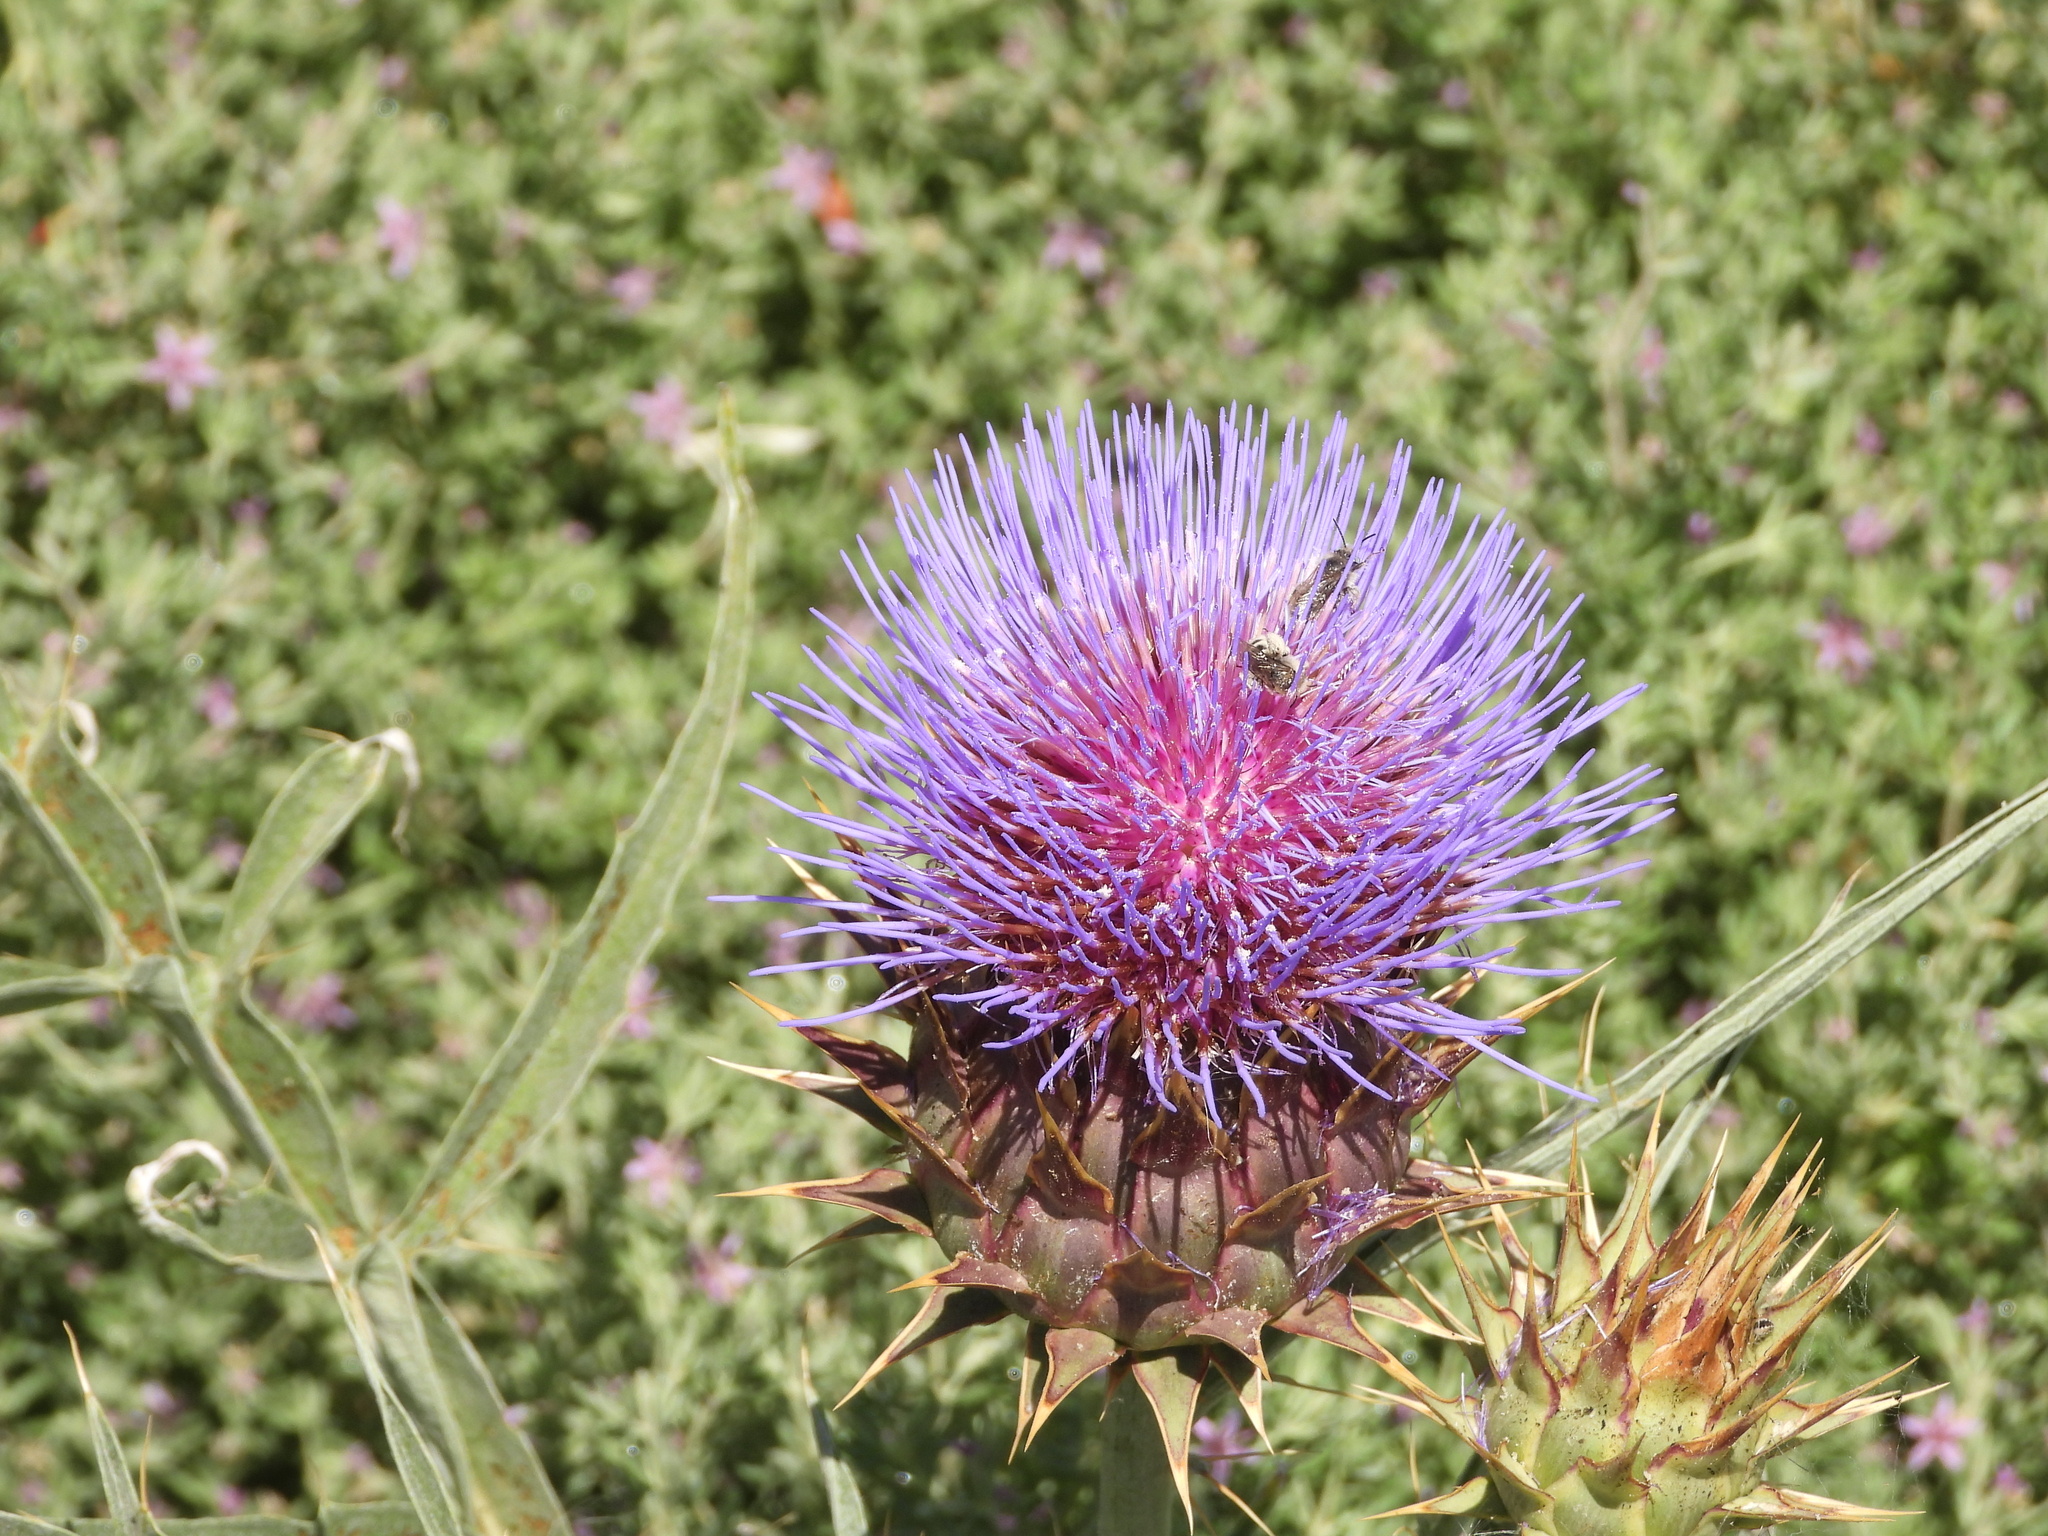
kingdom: Plantae
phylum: Tracheophyta
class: Magnoliopsida
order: Asterales
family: Asteraceae
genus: Cynara
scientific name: Cynara cardunculus
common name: Globe artichoke
